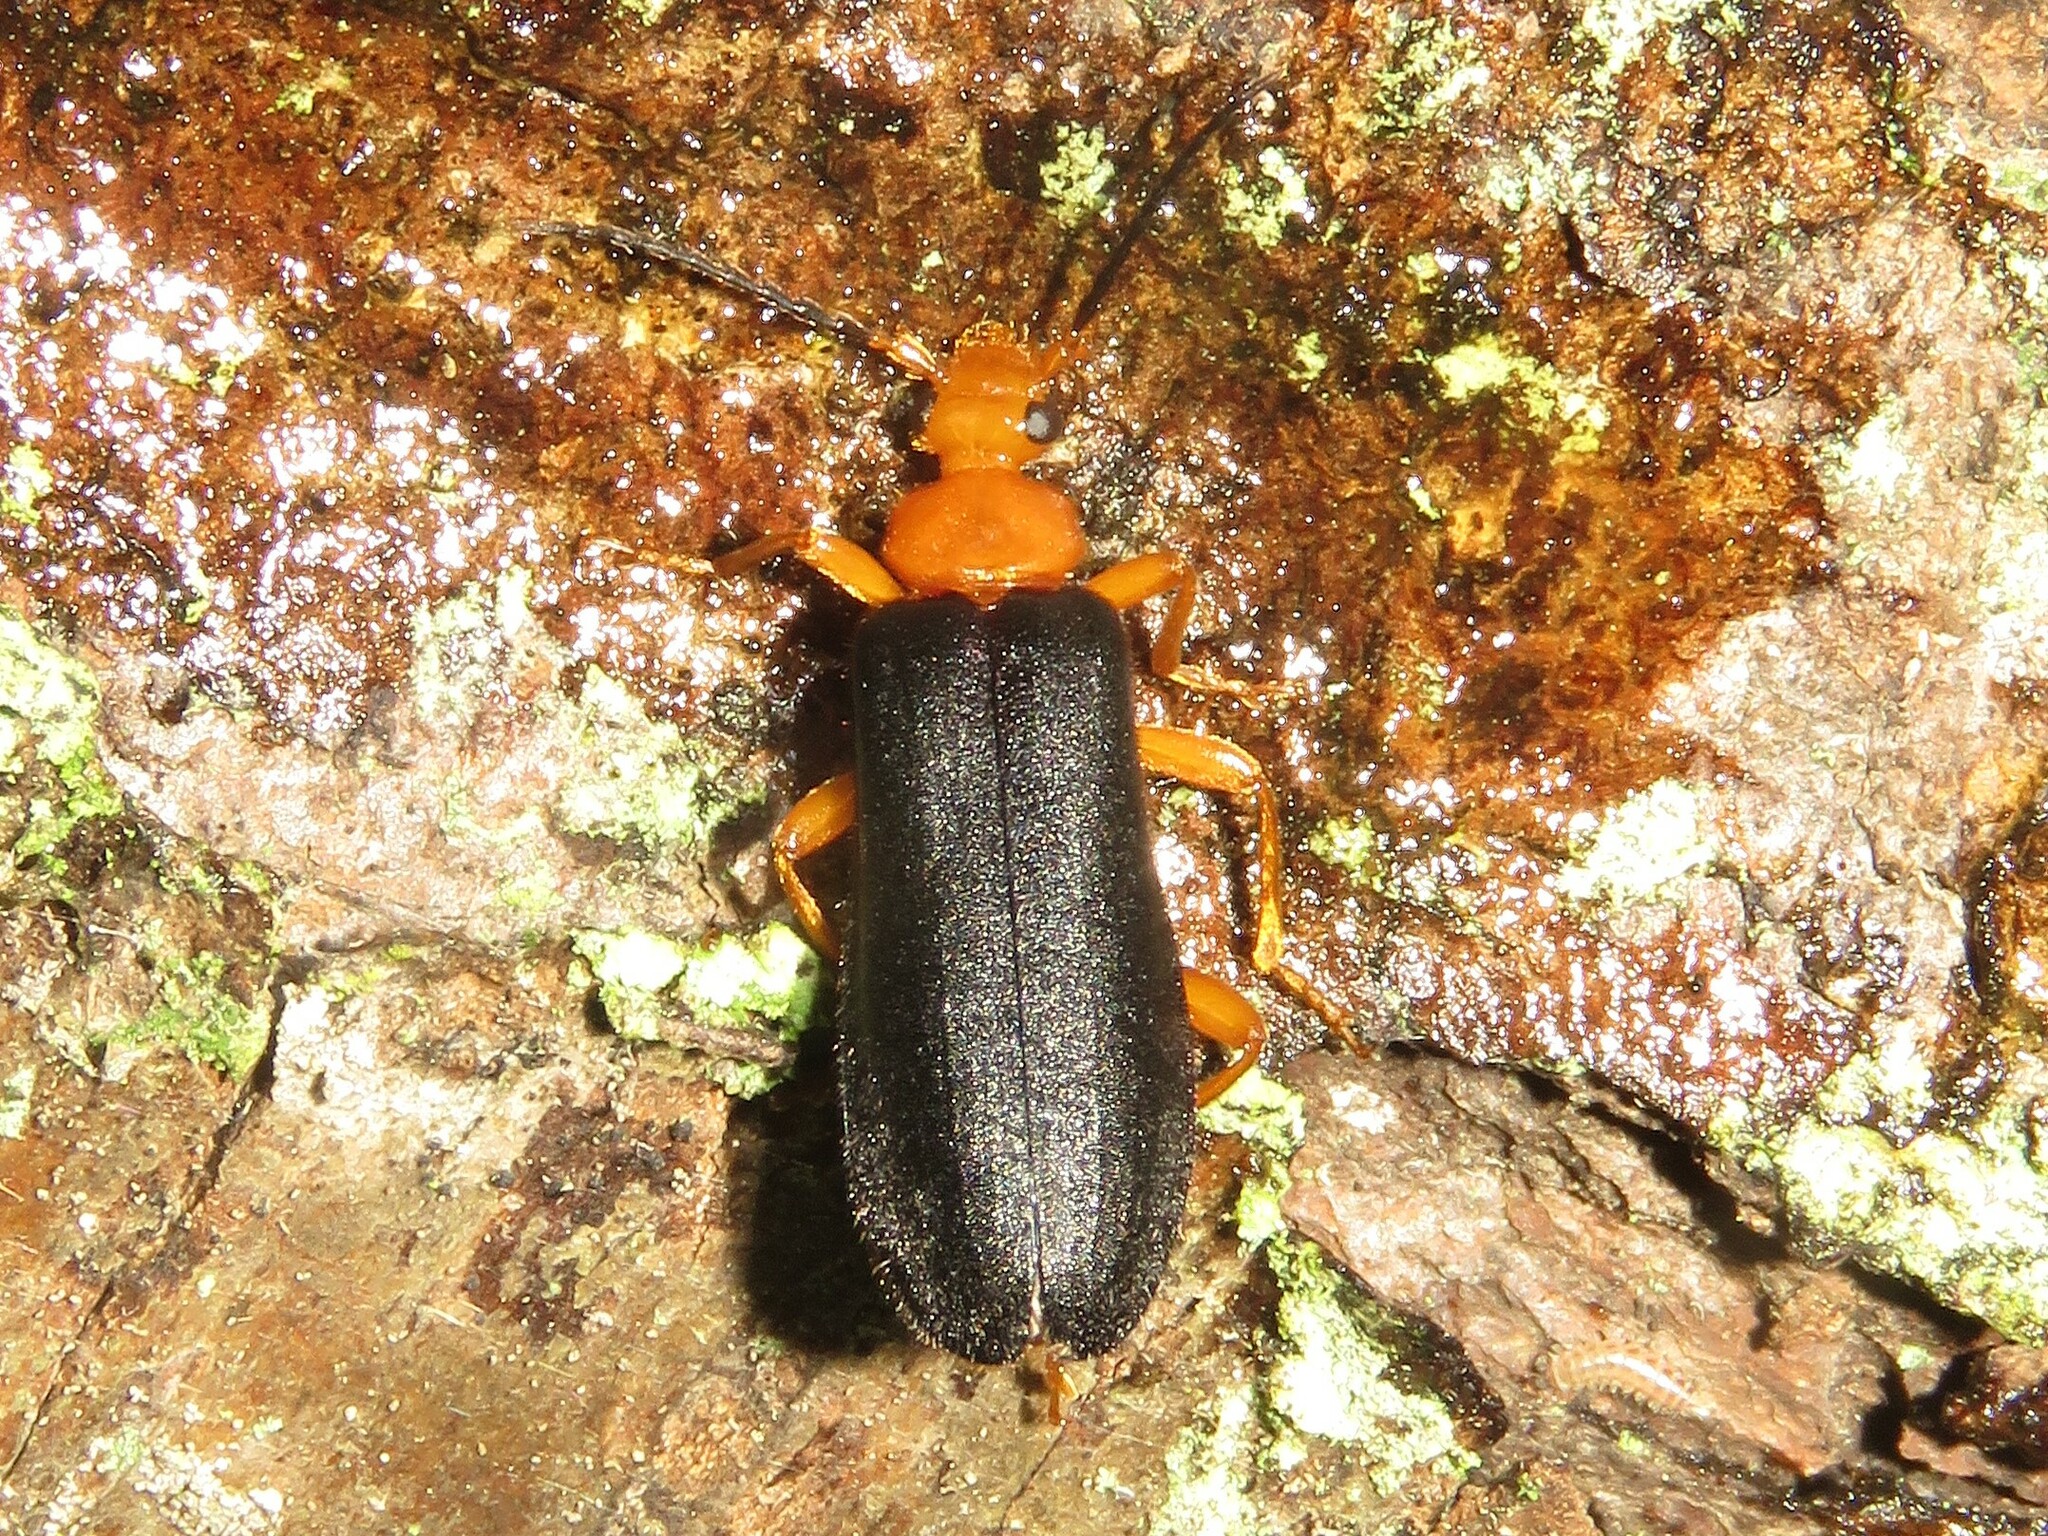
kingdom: Animalia
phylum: Arthropoda
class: Insecta
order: Coleoptera
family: Pyrochroidae
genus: Neopyrochroa
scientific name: Neopyrochroa flabellata
